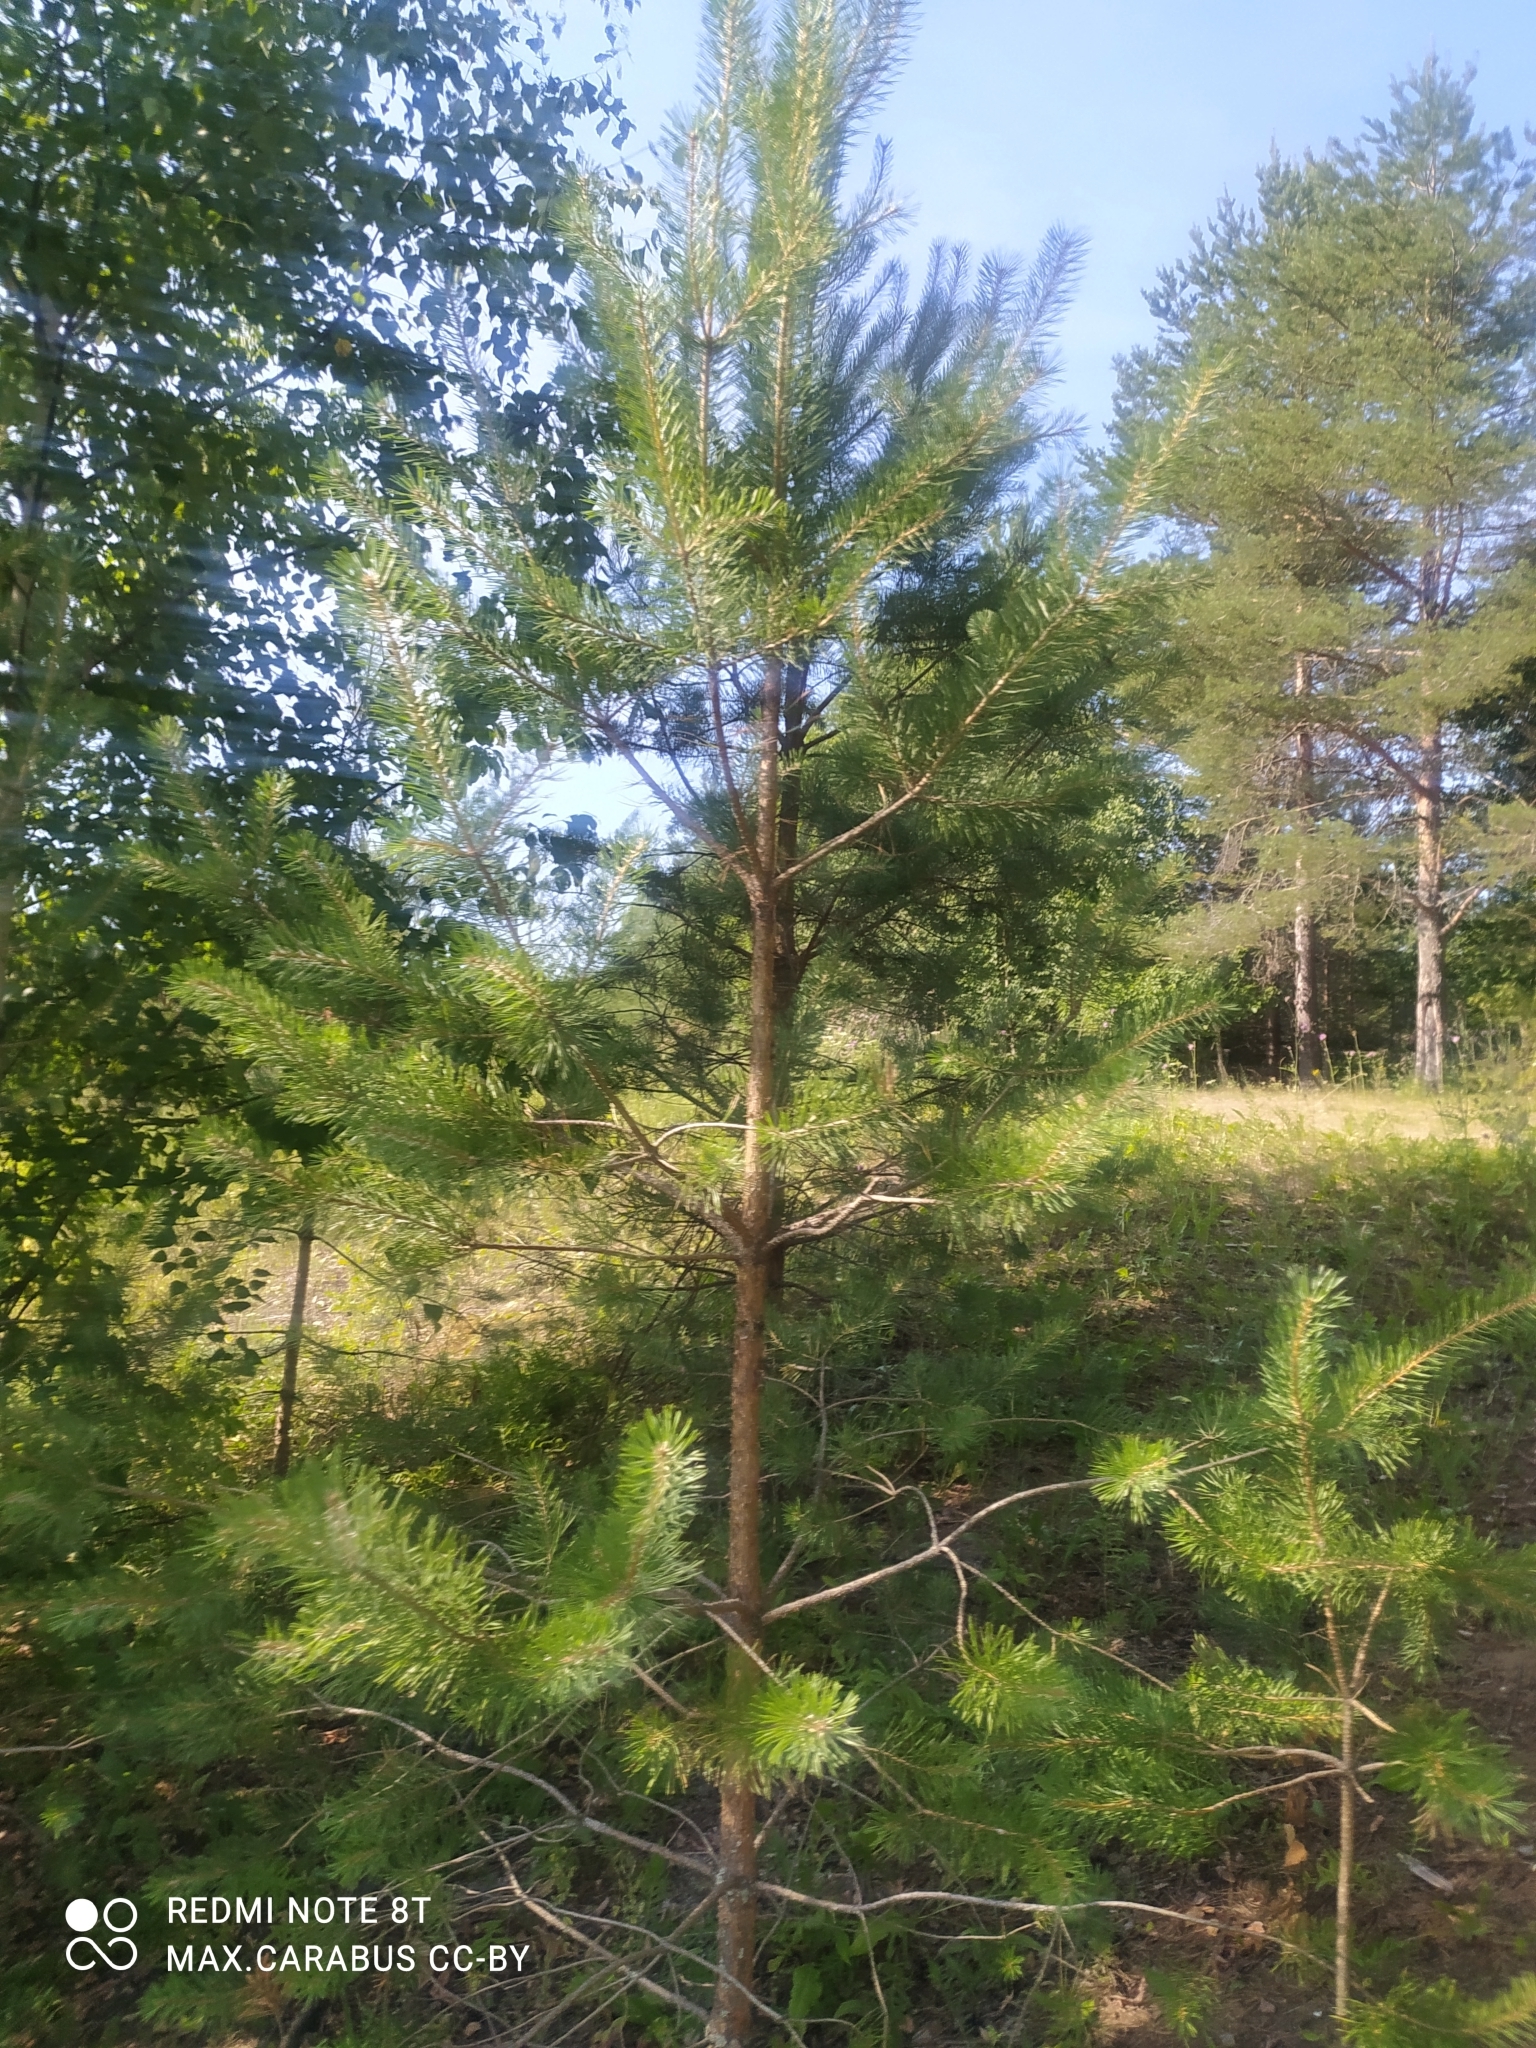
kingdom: Plantae
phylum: Tracheophyta
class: Pinopsida
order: Pinales
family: Pinaceae
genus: Pinus
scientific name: Pinus sylvestris
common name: Scots pine
